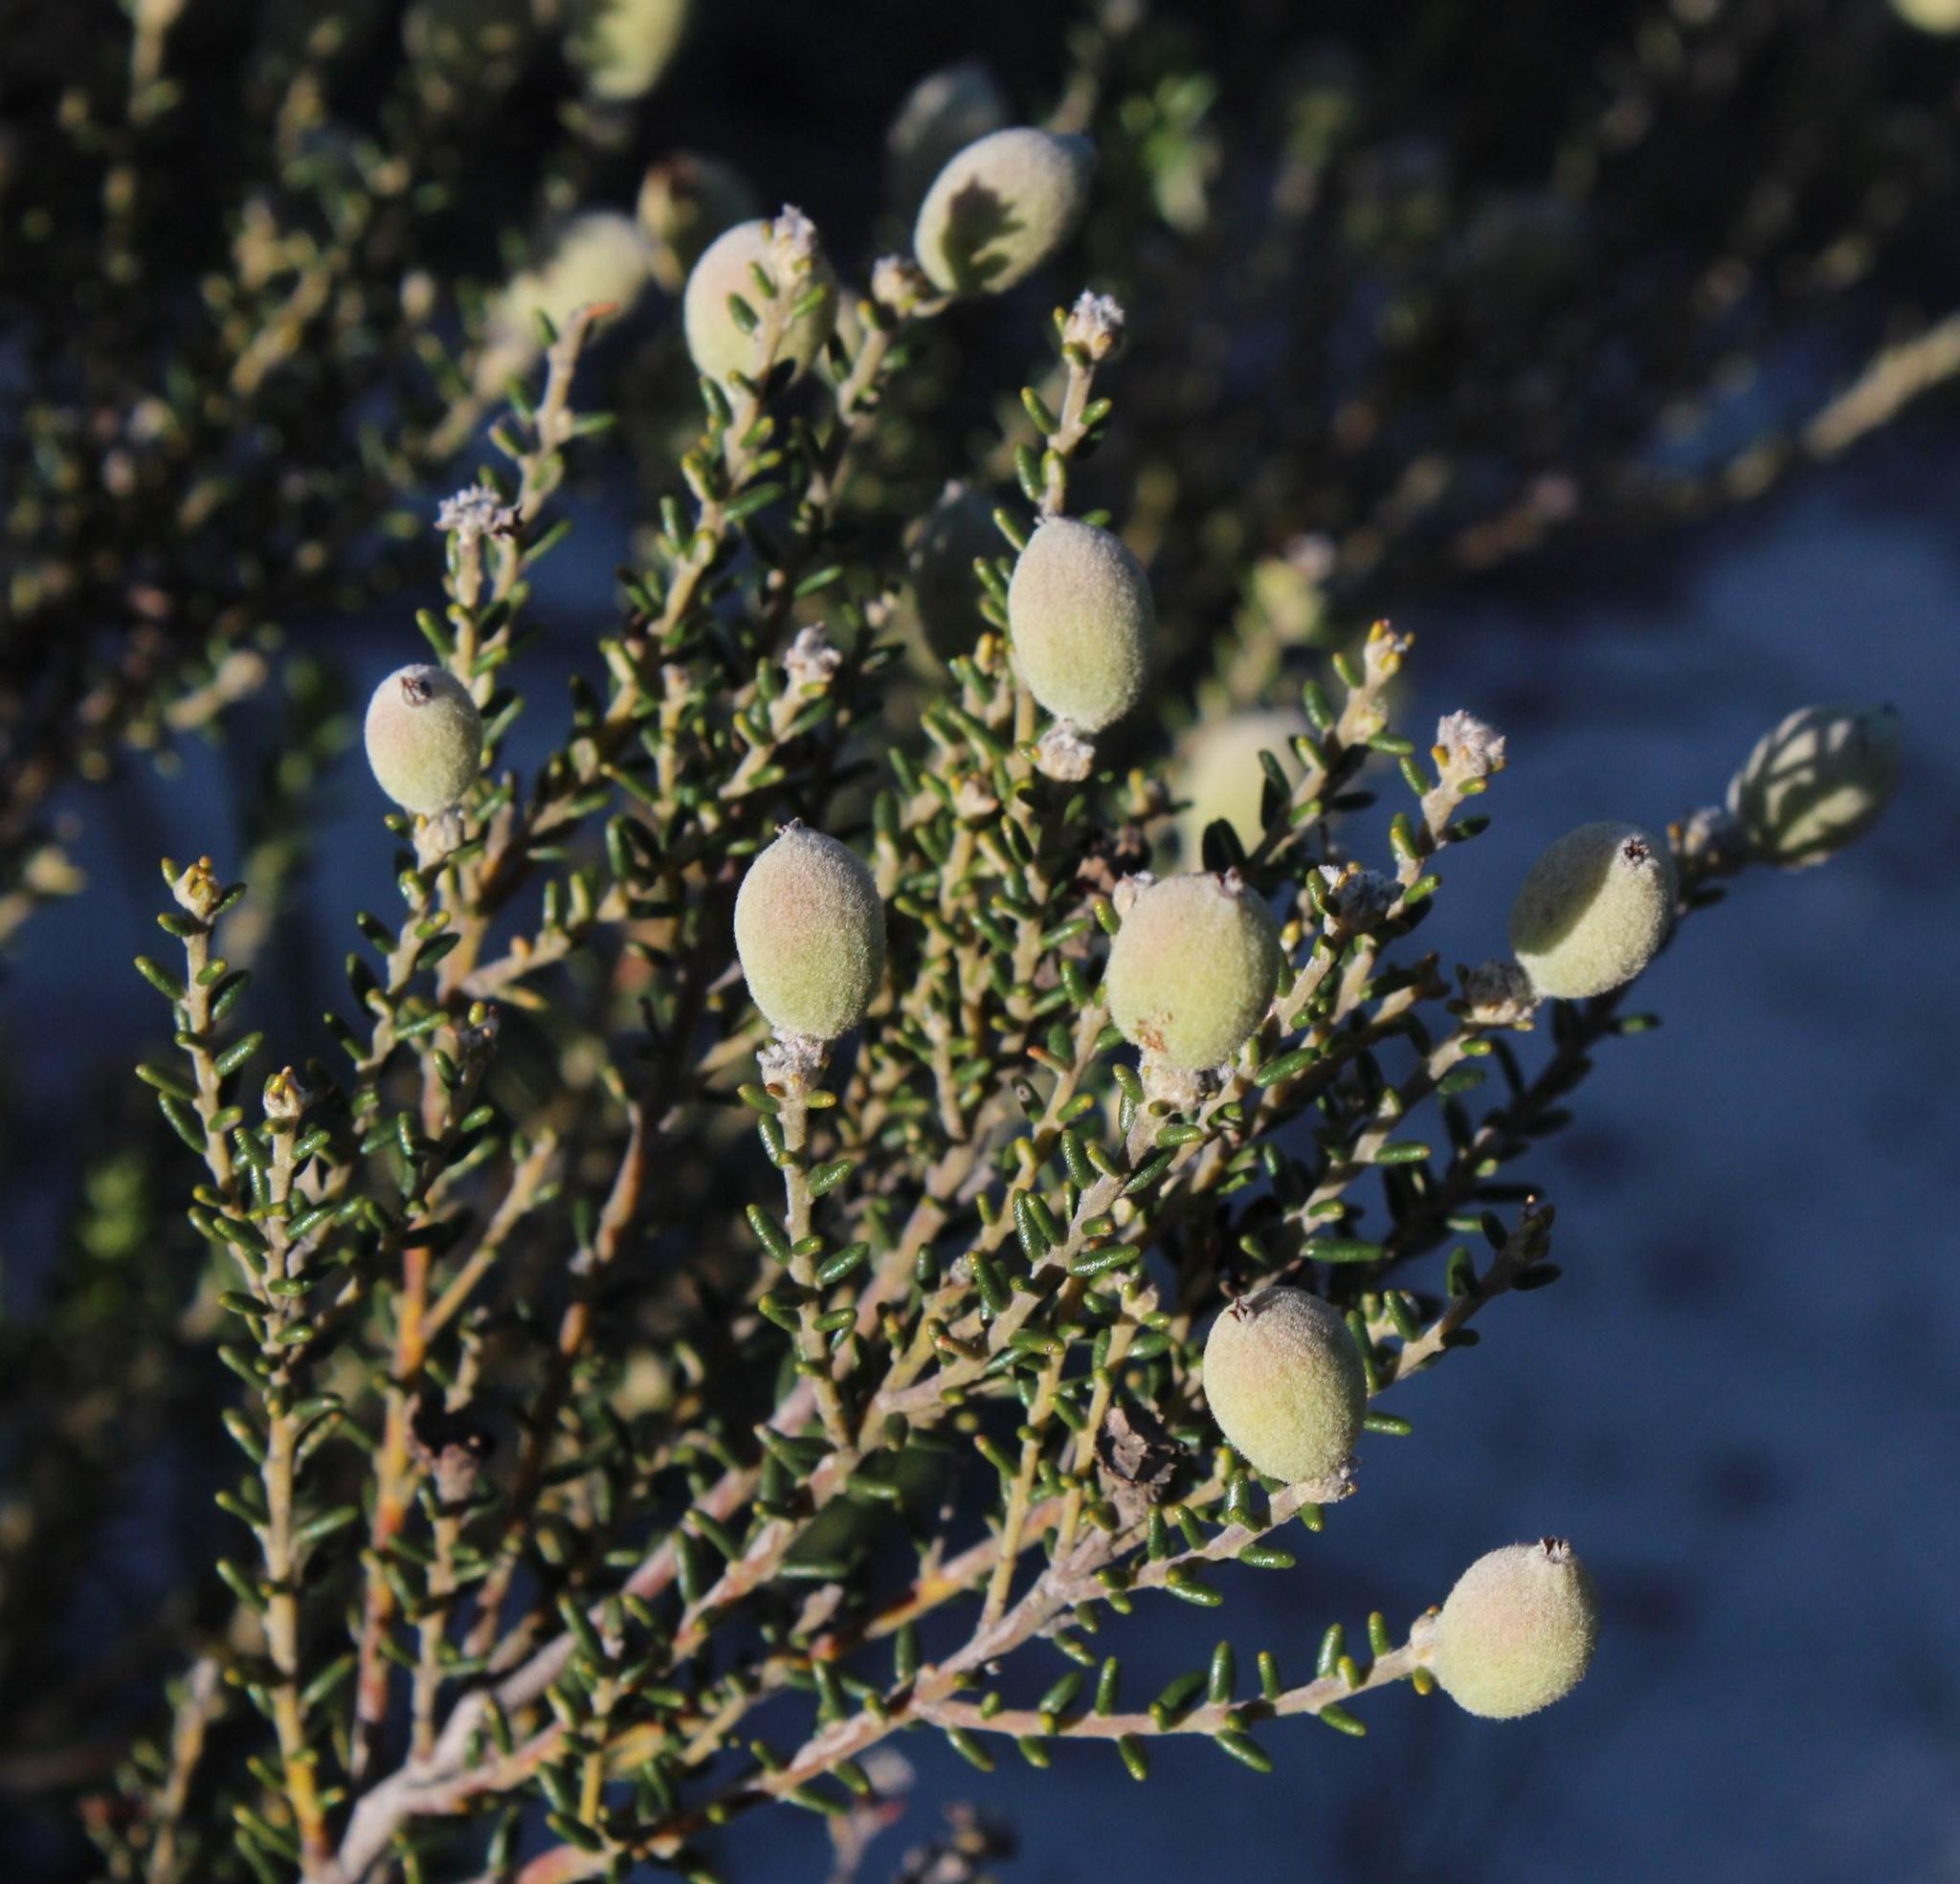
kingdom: Plantae
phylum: Tracheophyta
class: Magnoliopsida
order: Rosales
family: Rhamnaceae
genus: Phylica
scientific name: Phylica cephalantha
